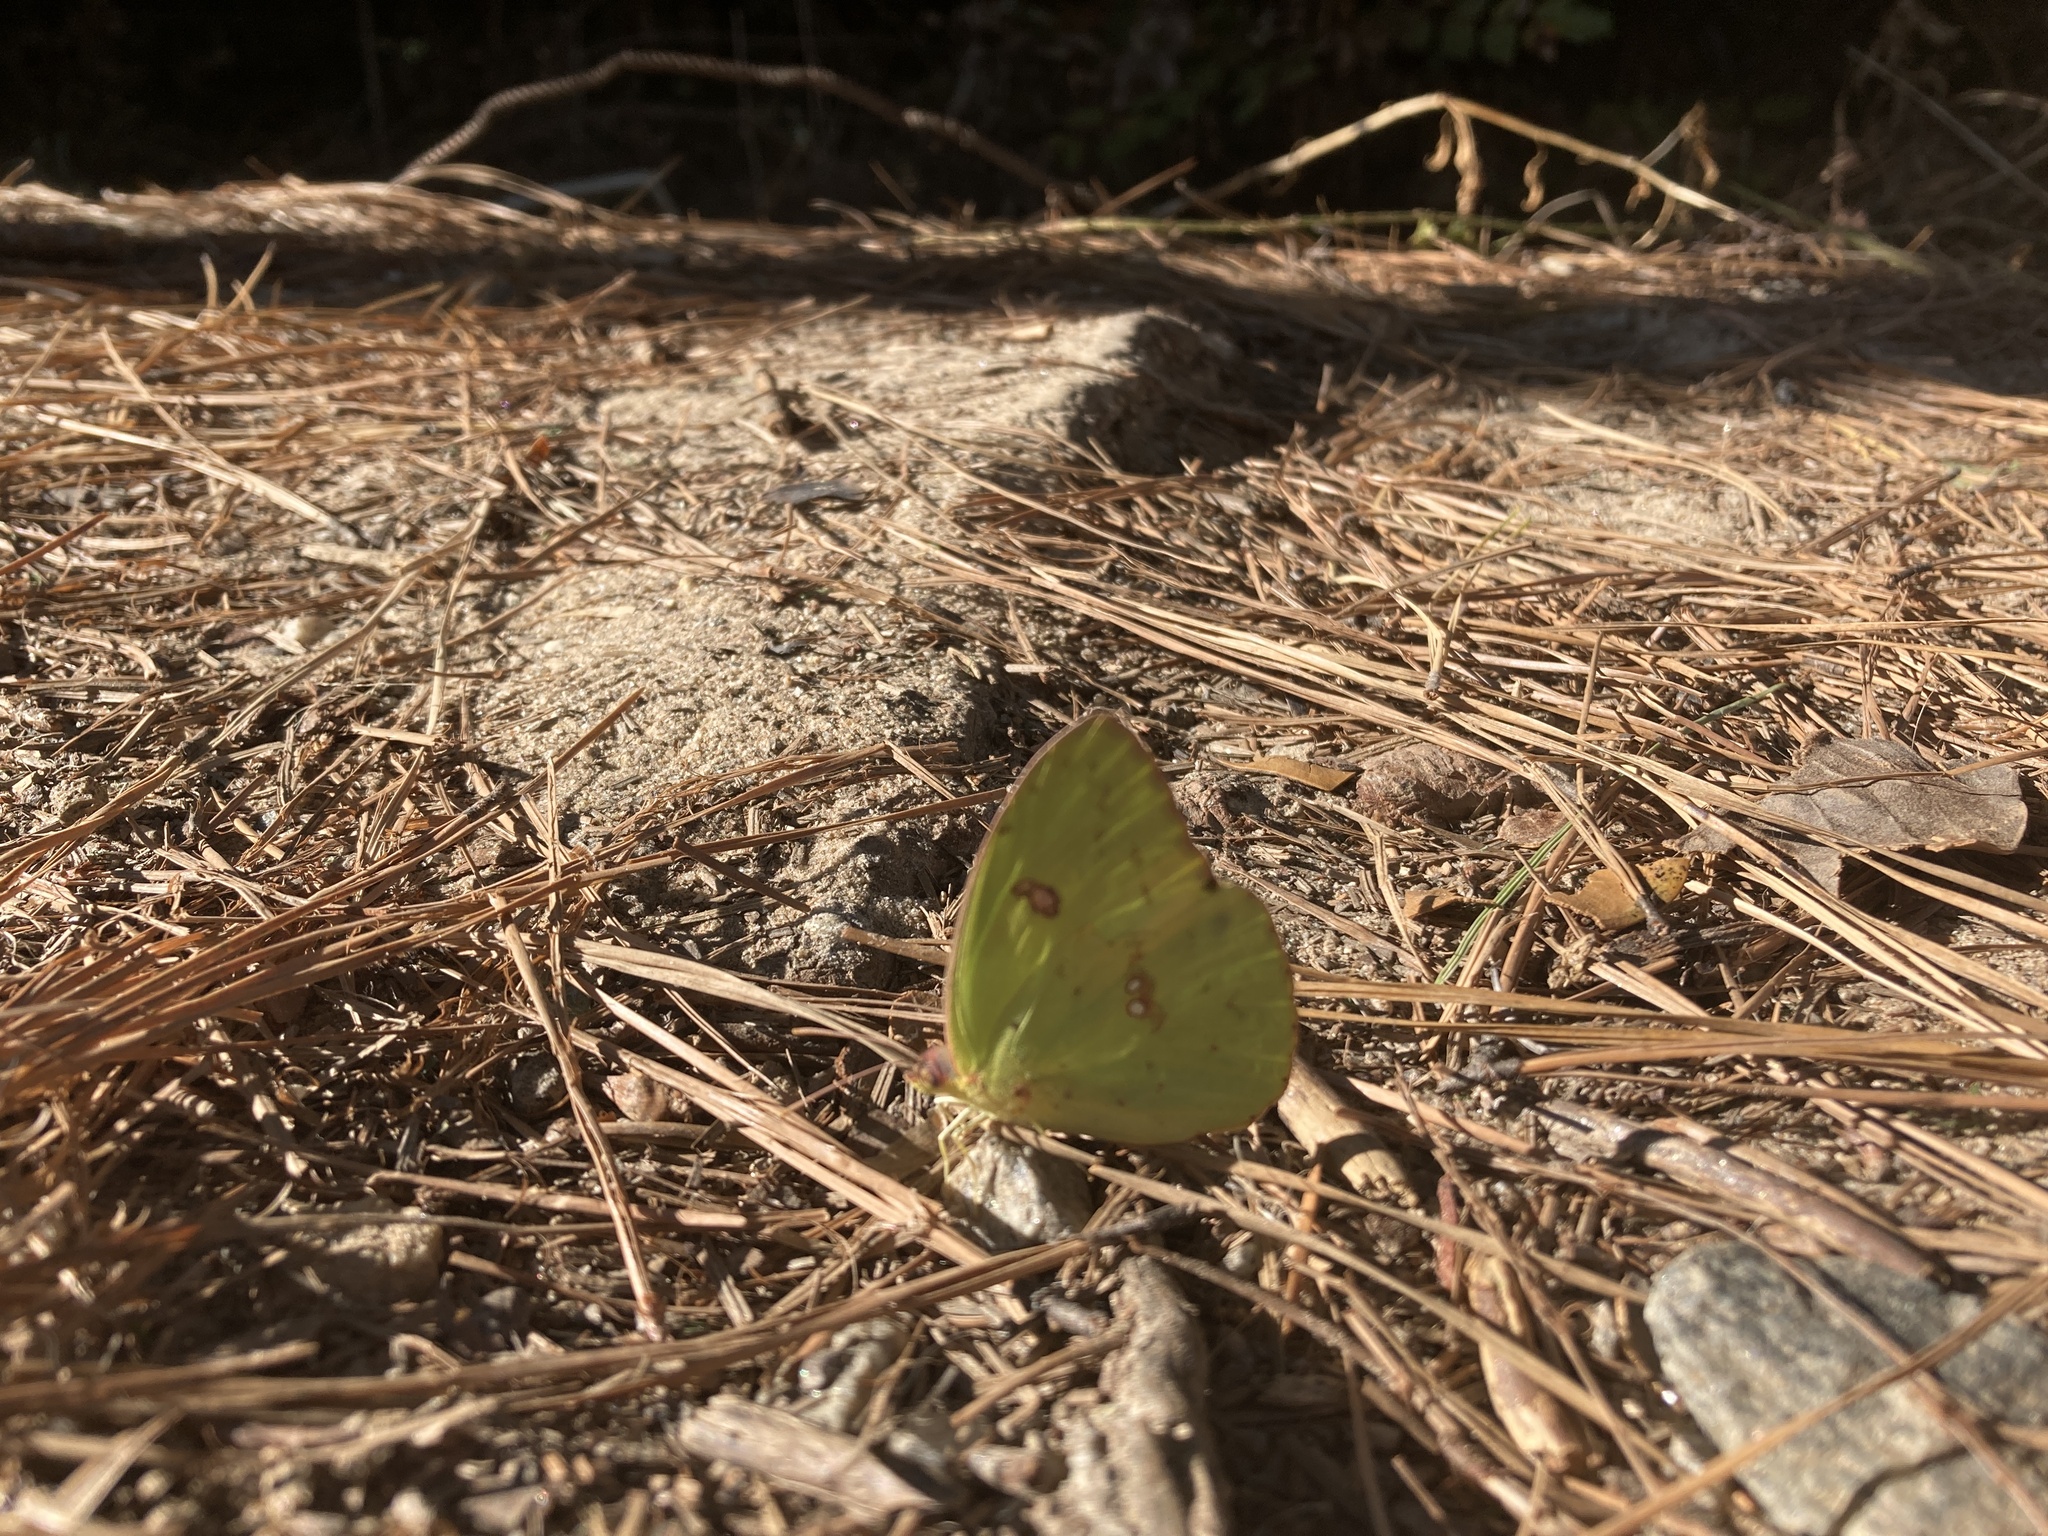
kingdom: Animalia
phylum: Arthropoda
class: Insecta
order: Lepidoptera
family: Pieridae
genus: Phoebis
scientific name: Phoebis sennae
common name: Cloudless sulphur
